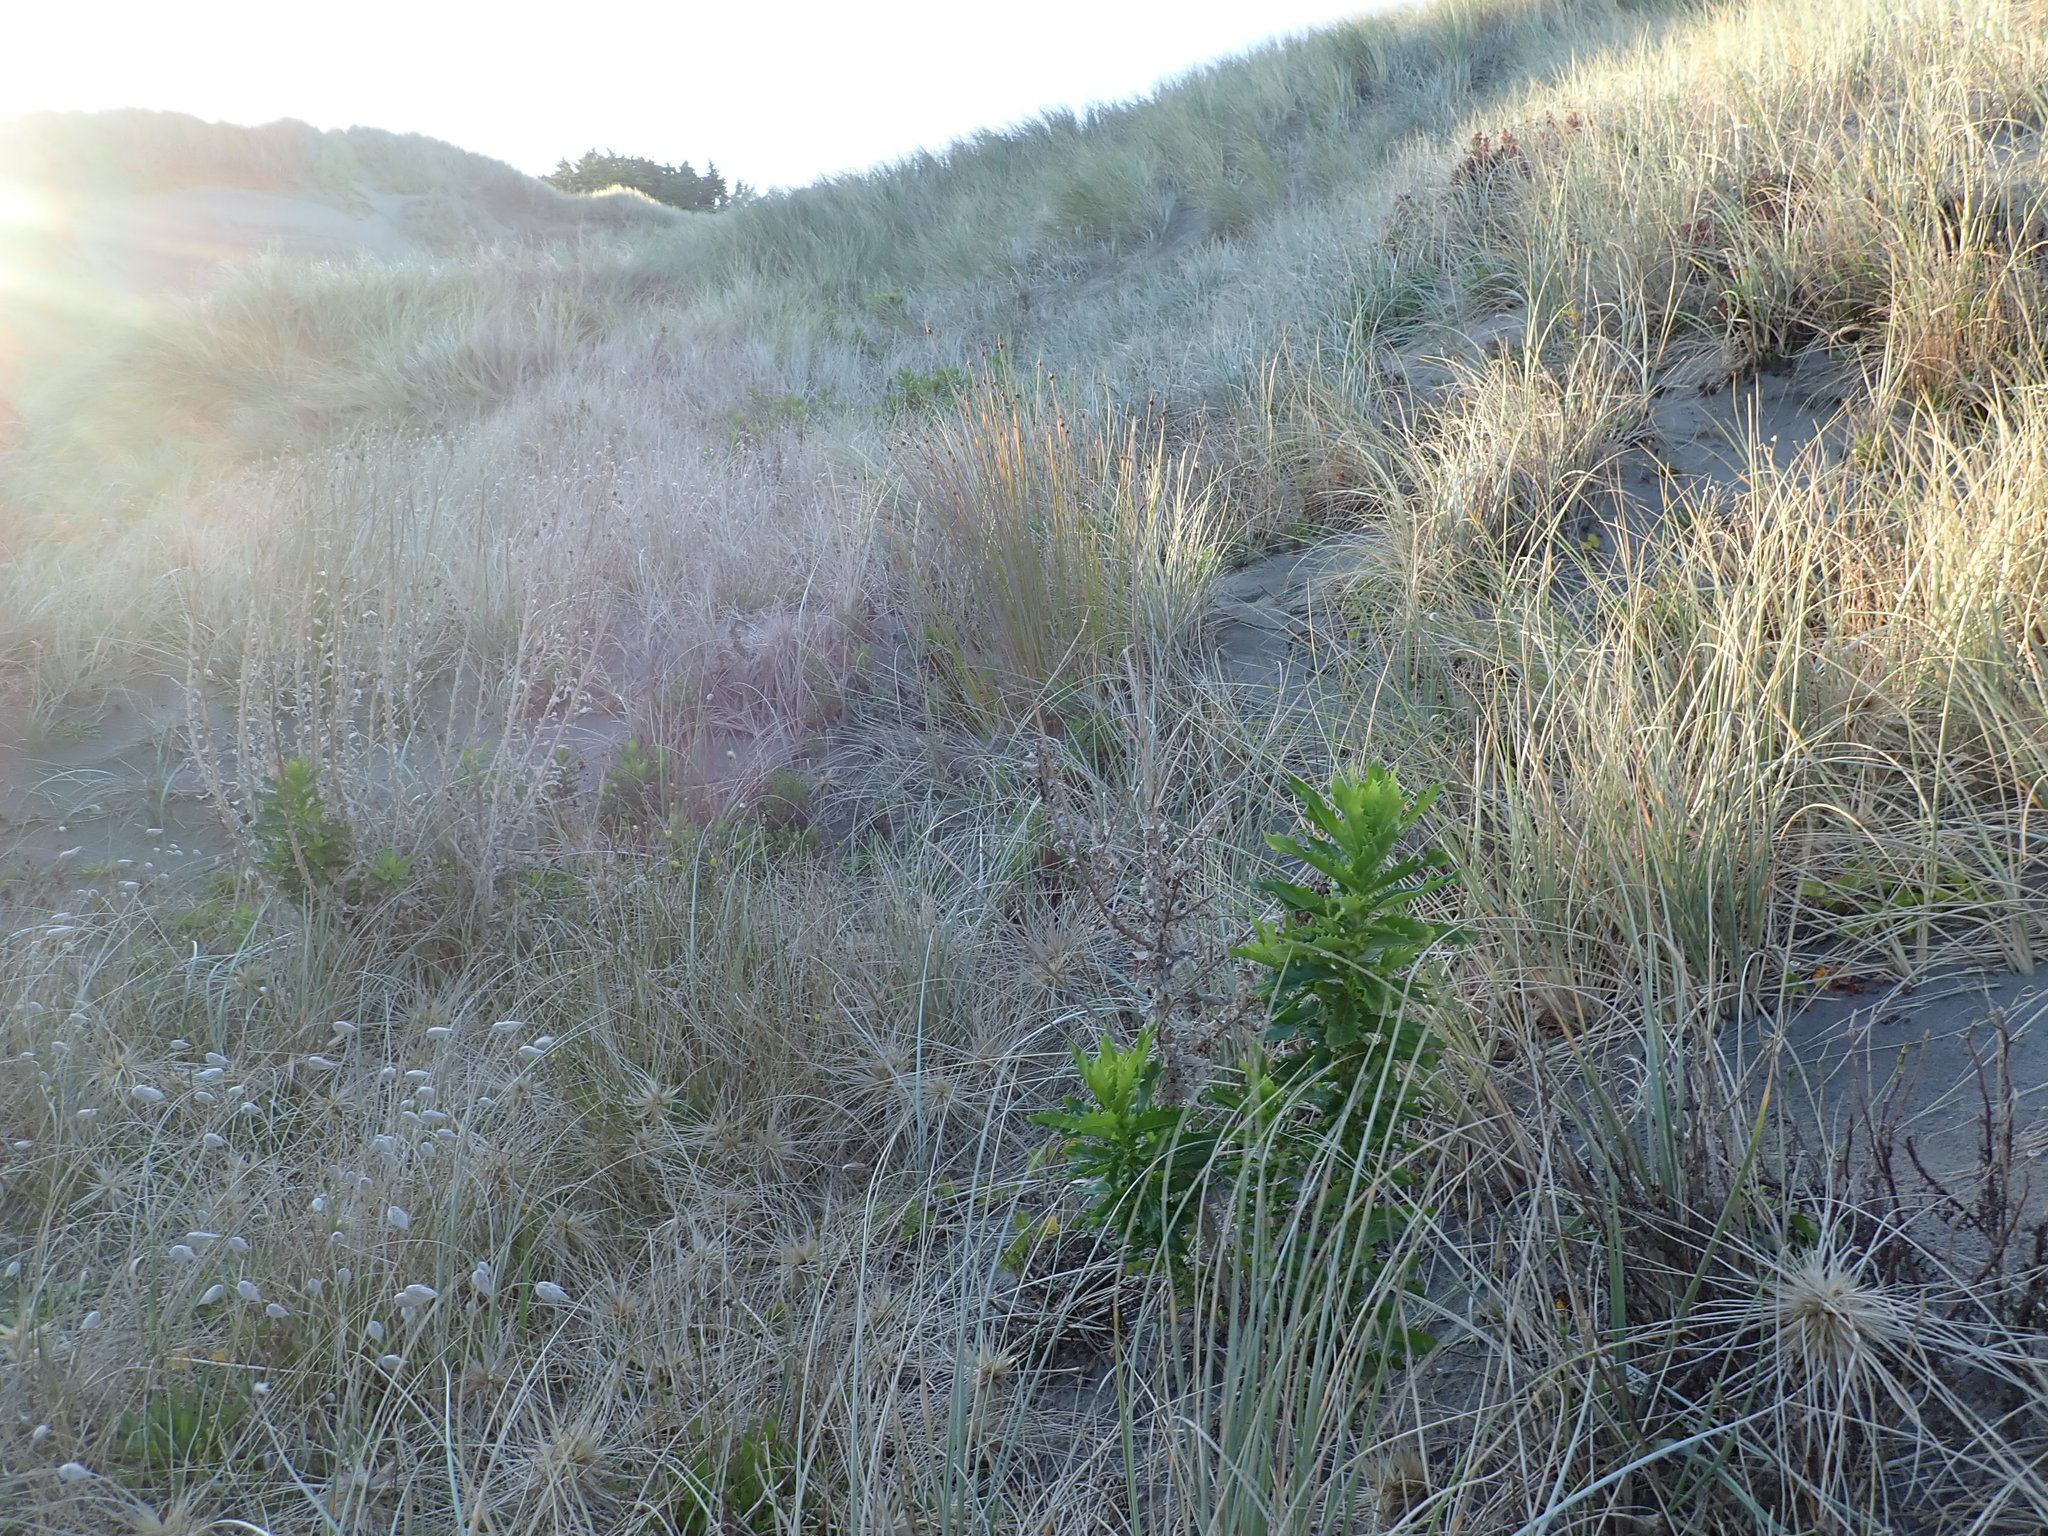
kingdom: Plantae
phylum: Tracheophyta
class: Magnoliopsida
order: Asterales
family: Asteraceae
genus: Senecio
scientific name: Senecio glastifolius
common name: Woad-leaved ragwort
